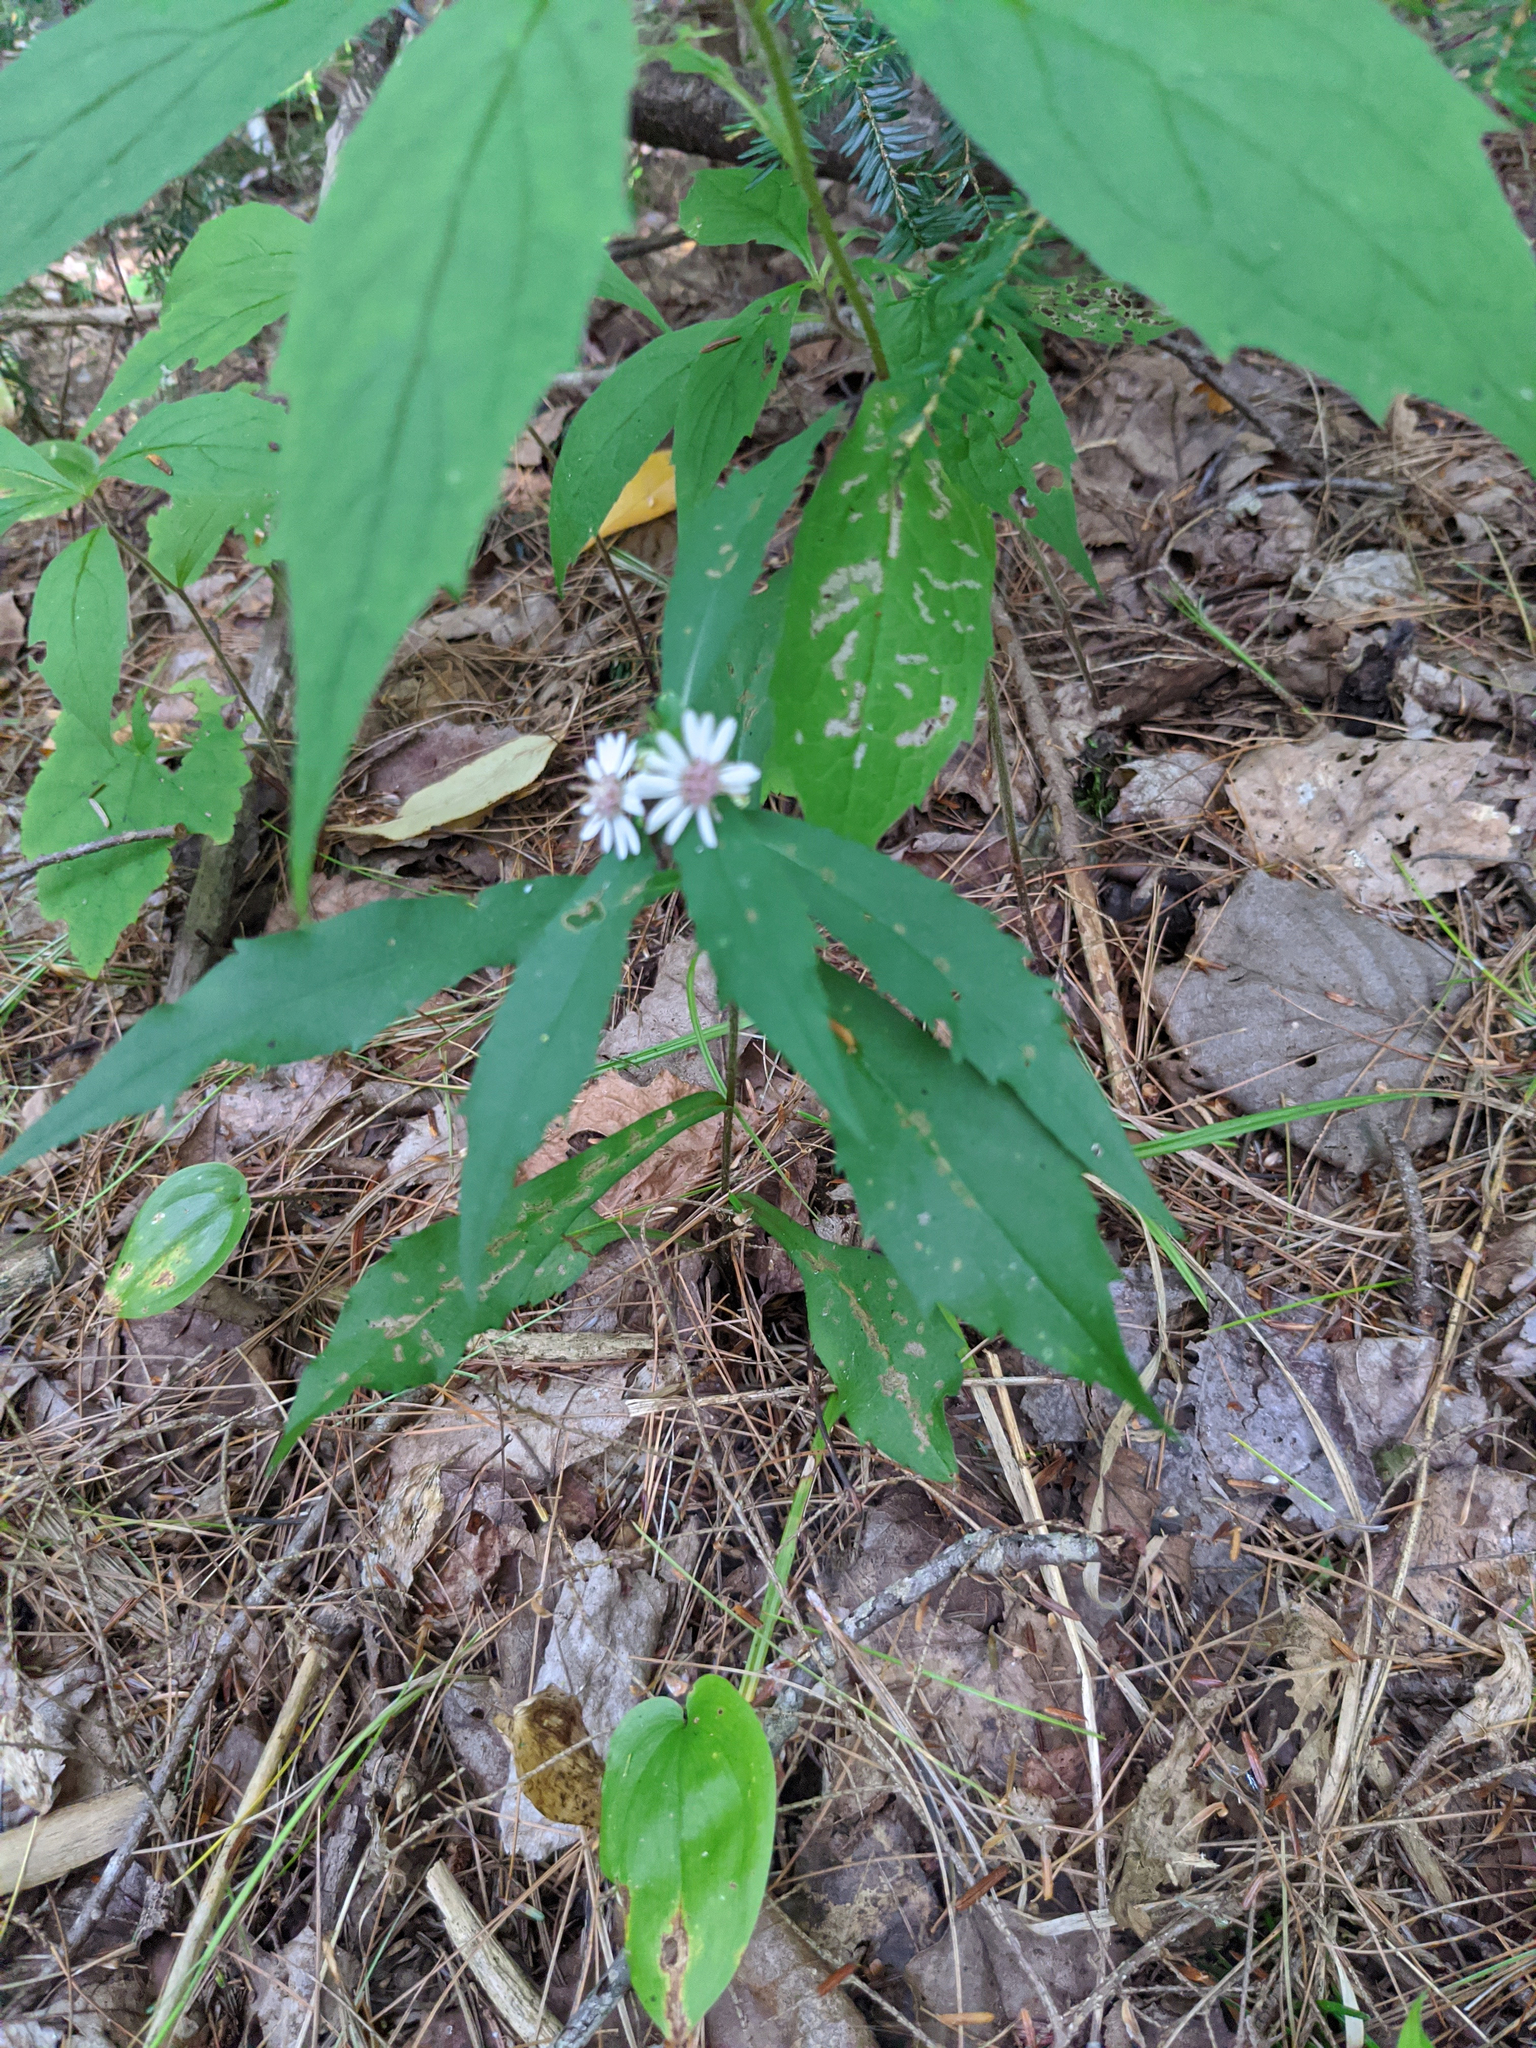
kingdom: Plantae
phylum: Tracheophyta
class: Magnoliopsida
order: Asterales
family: Asteraceae
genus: Symphyotrichum
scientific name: Symphyotrichum lateriflorum
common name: Calico aster
